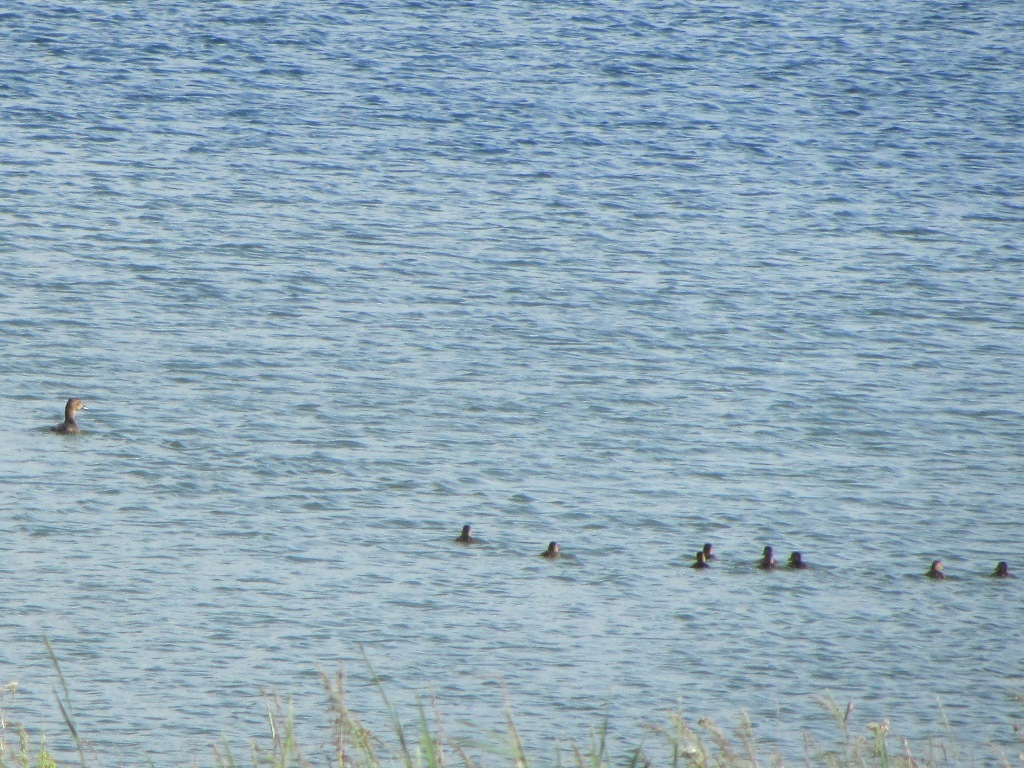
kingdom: Animalia
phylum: Chordata
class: Aves
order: Anseriformes
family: Anatidae
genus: Aythya
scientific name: Aythya ferina
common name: Common pochard
